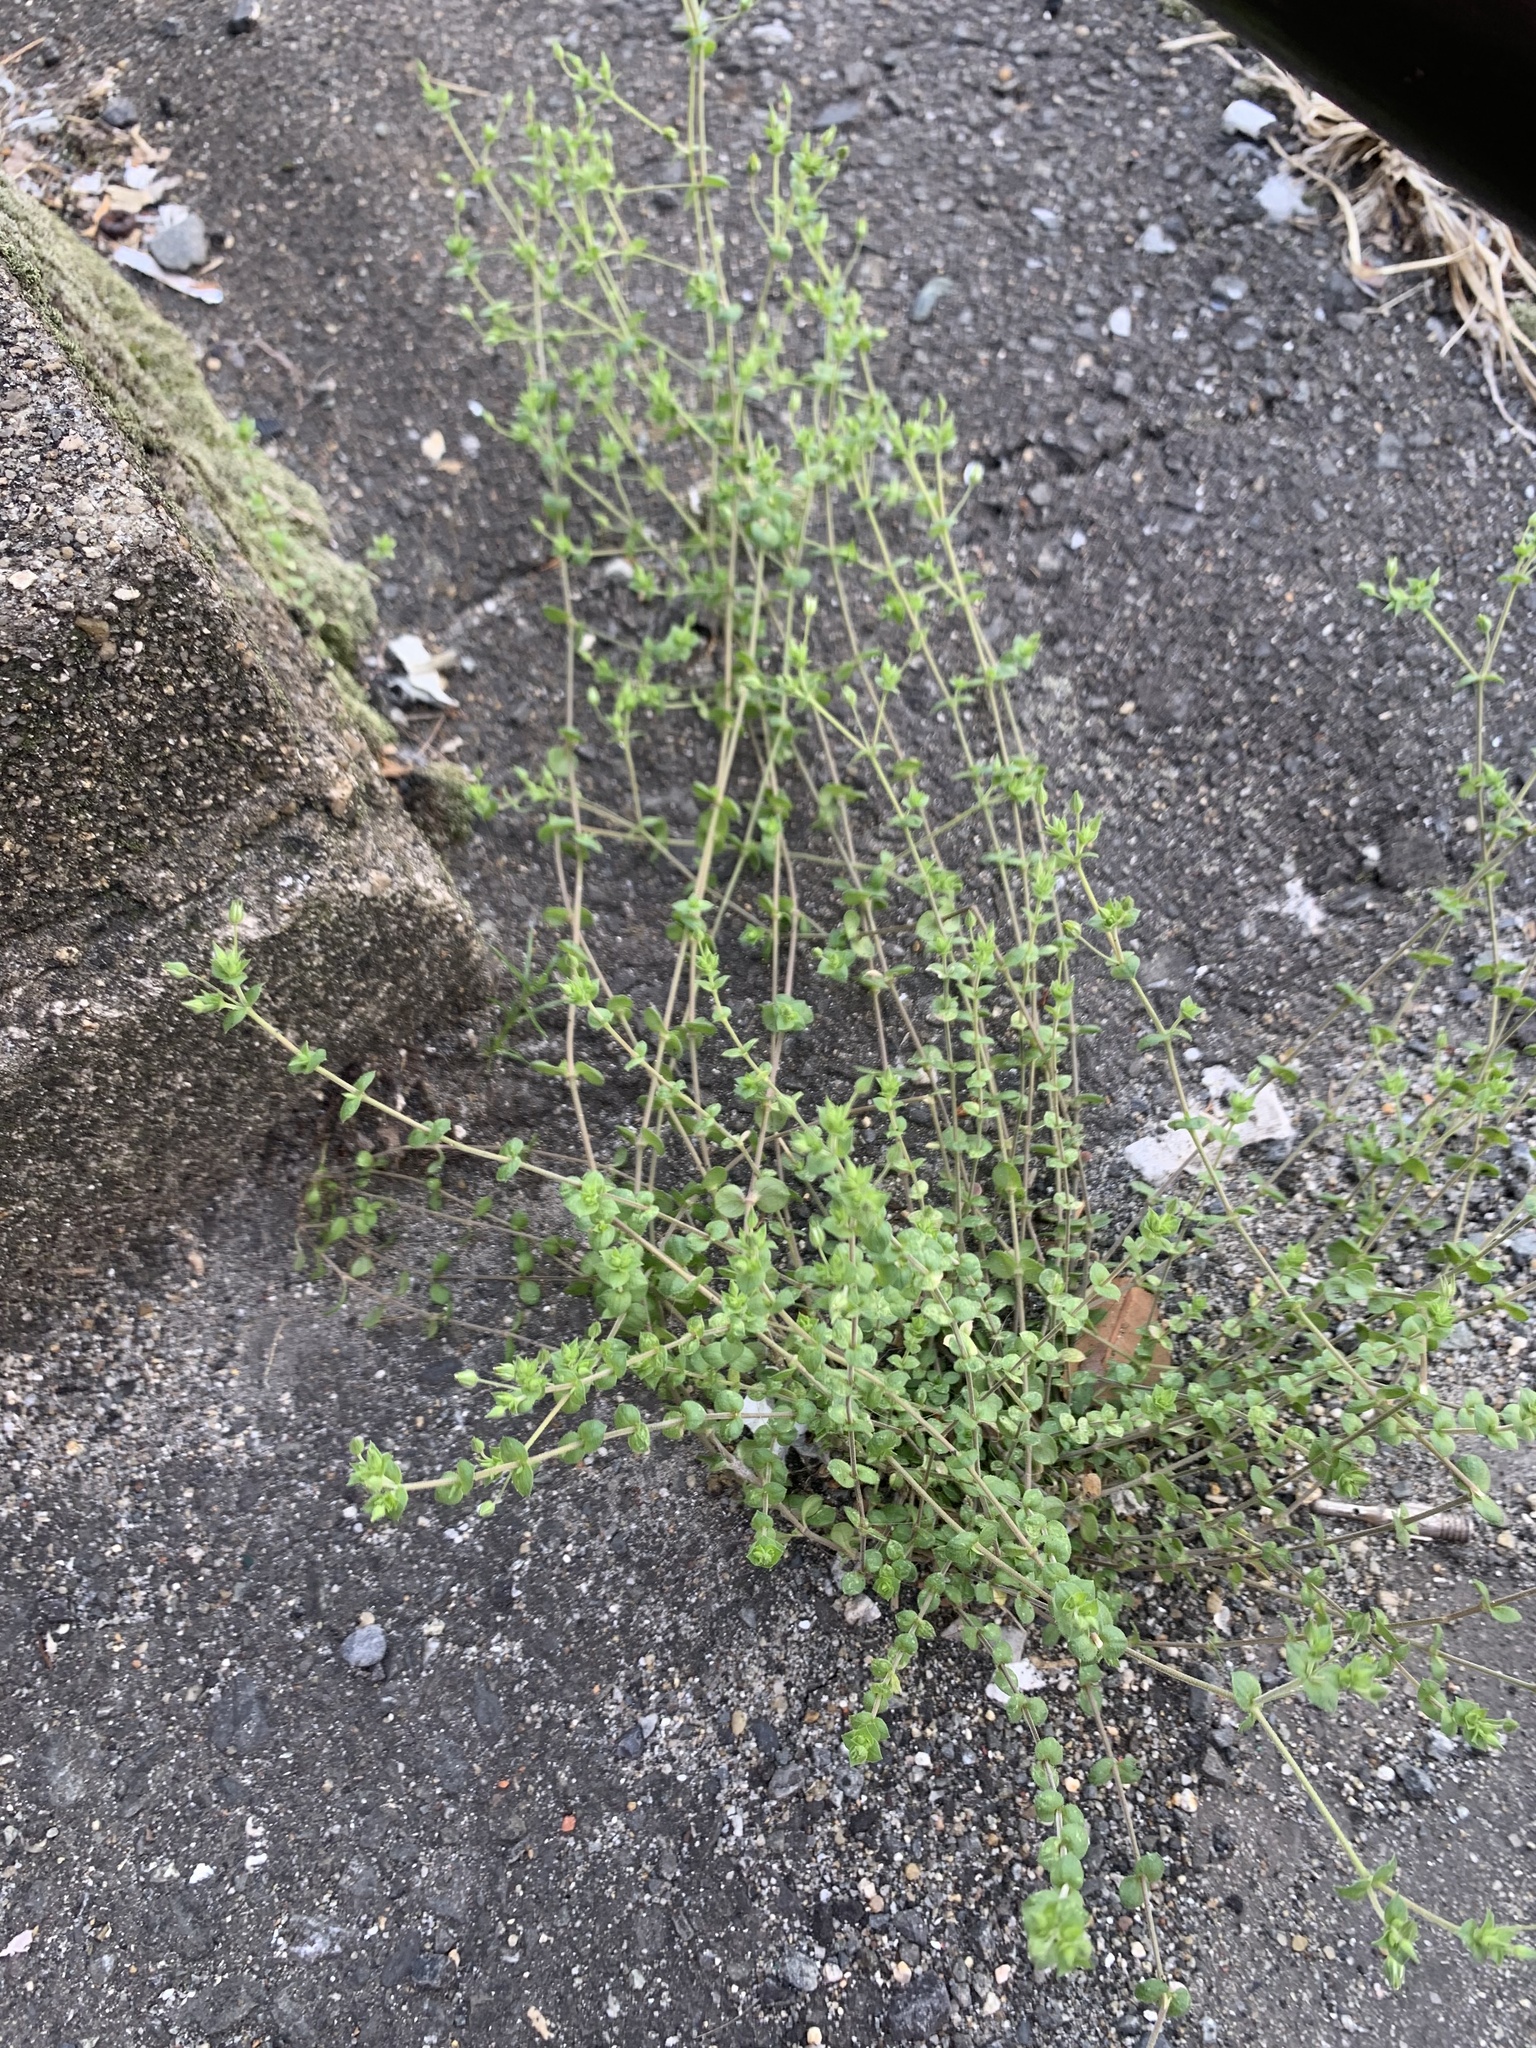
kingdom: Plantae
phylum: Tracheophyta
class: Magnoliopsida
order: Caryophyllales
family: Caryophyllaceae
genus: Arenaria
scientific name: Arenaria serpyllifolia
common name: Thyme-leaved sandwort
